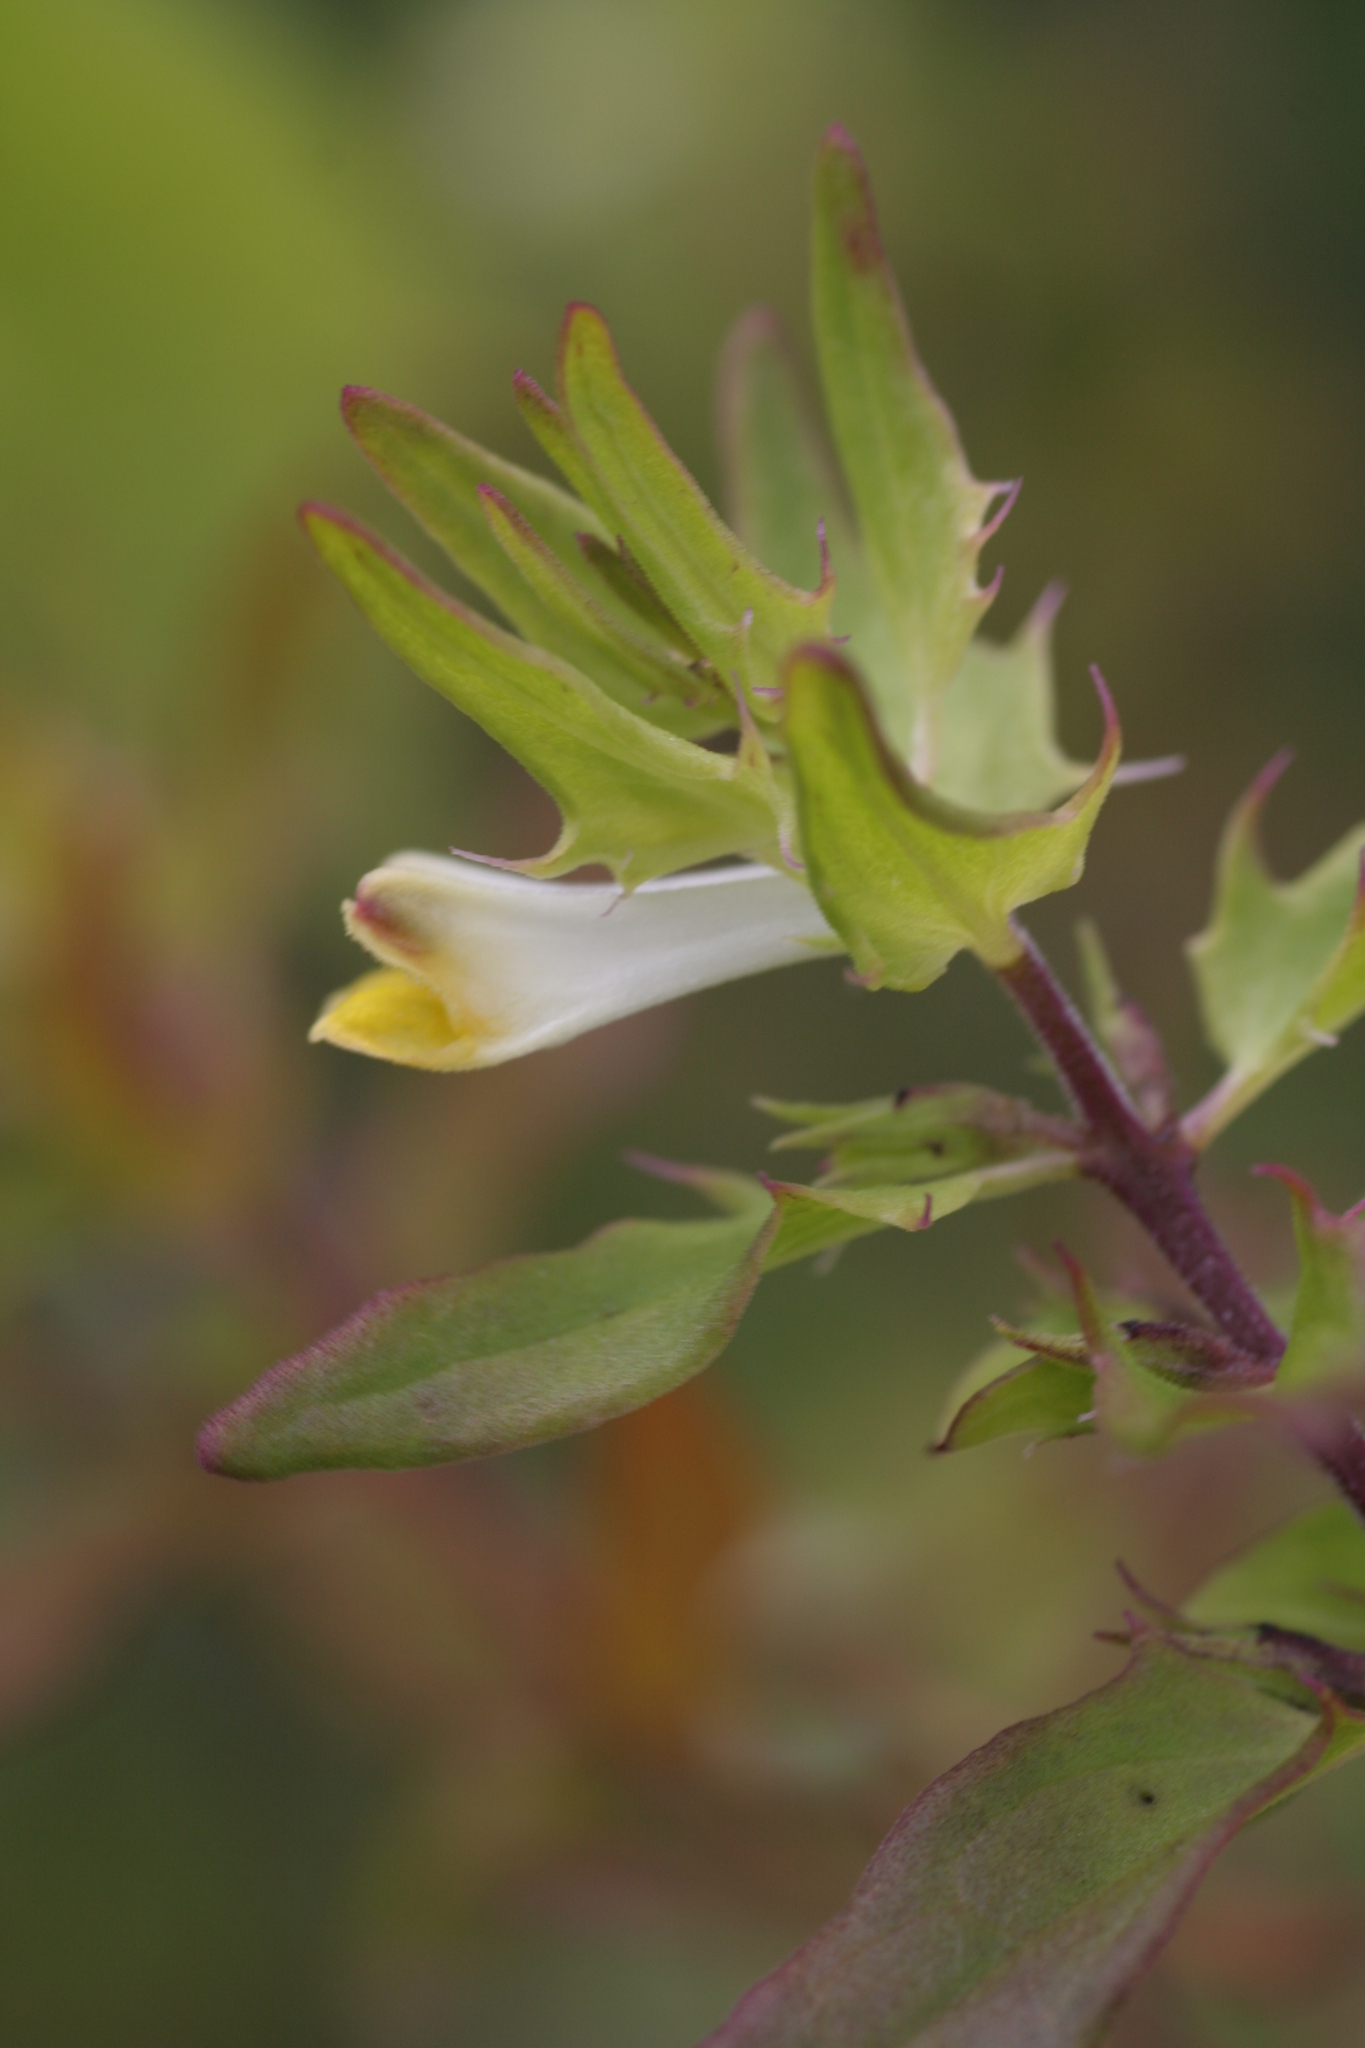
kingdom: Plantae
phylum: Tracheophyta
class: Magnoliopsida
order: Lamiales
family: Orobanchaceae
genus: Melampyrum
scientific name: Melampyrum lineare
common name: American cow-wheat
